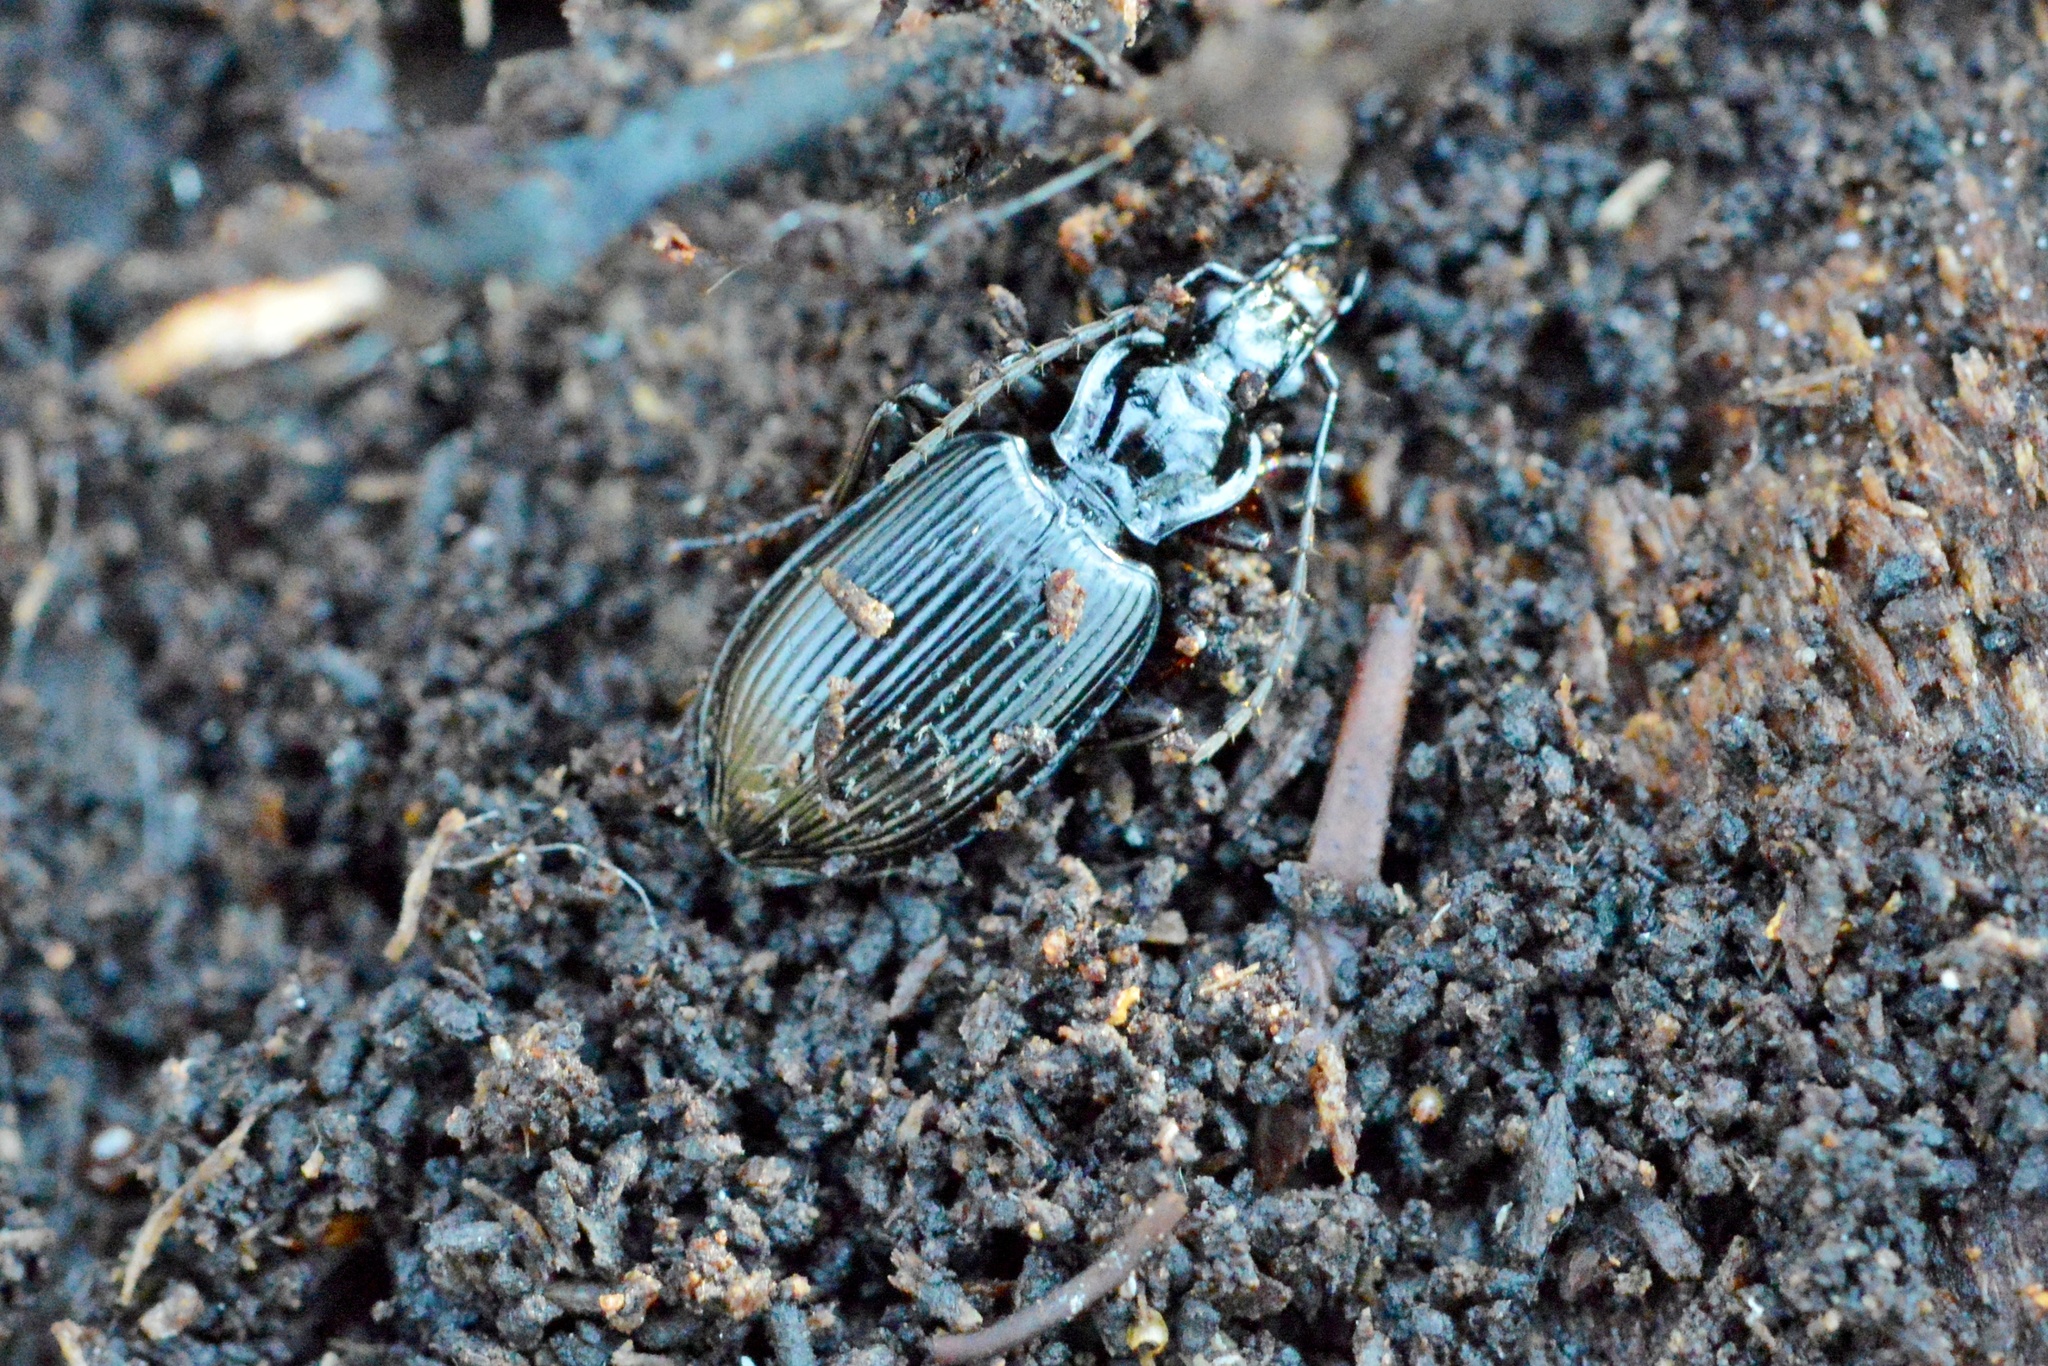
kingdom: Animalia
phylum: Arthropoda
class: Insecta
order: Coleoptera
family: Carabidae
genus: Platynus
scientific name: Platynus assimilis
